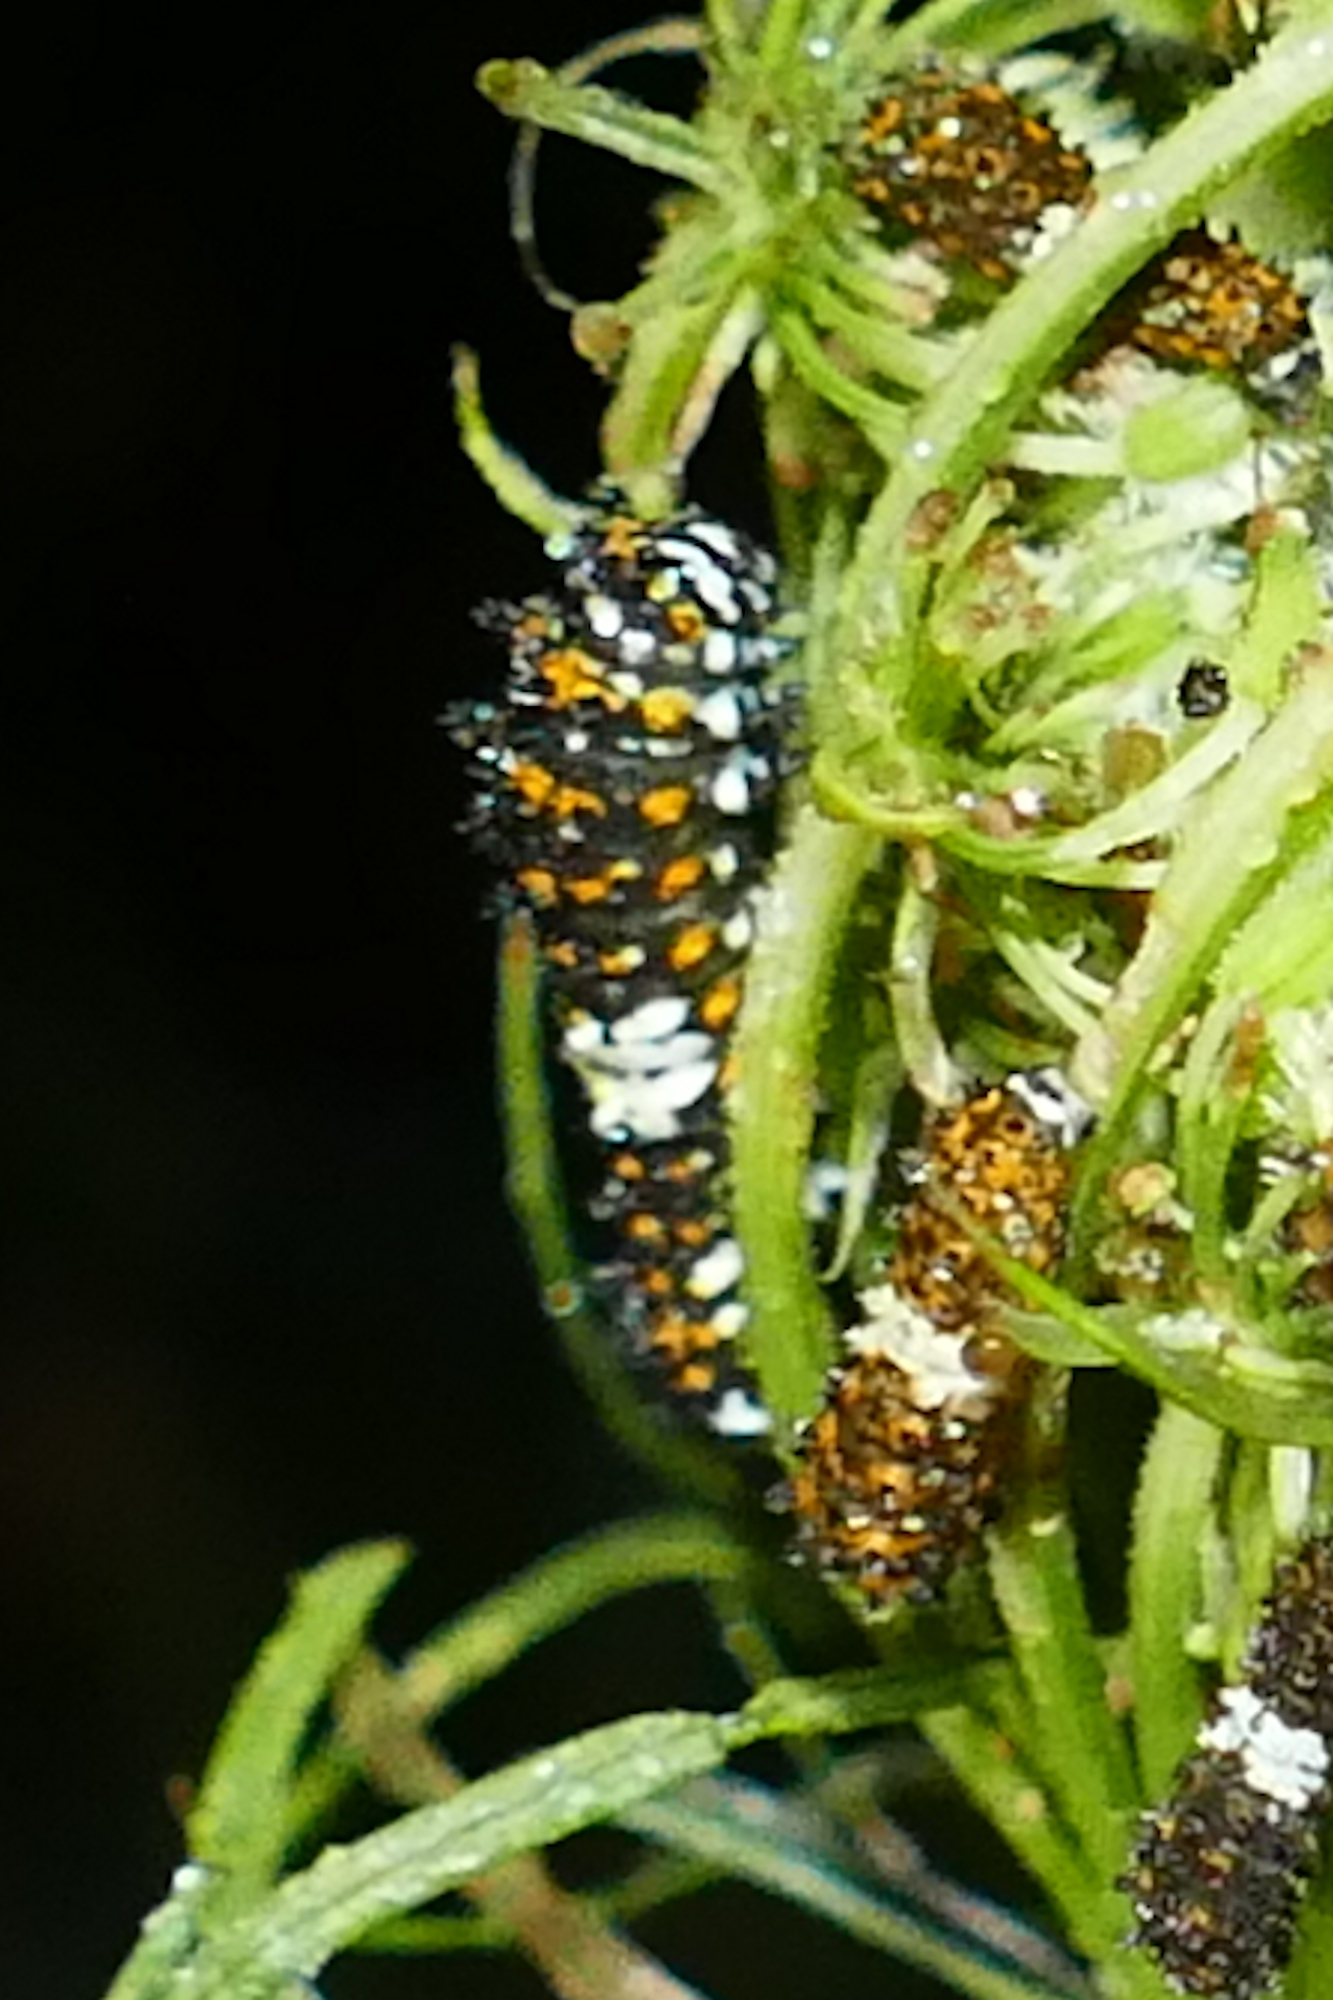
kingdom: Animalia
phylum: Arthropoda
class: Insecta
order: Lepidoptera
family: Papilionidae
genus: Papilio
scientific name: Papilio polyxenes
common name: Black swallowtail
